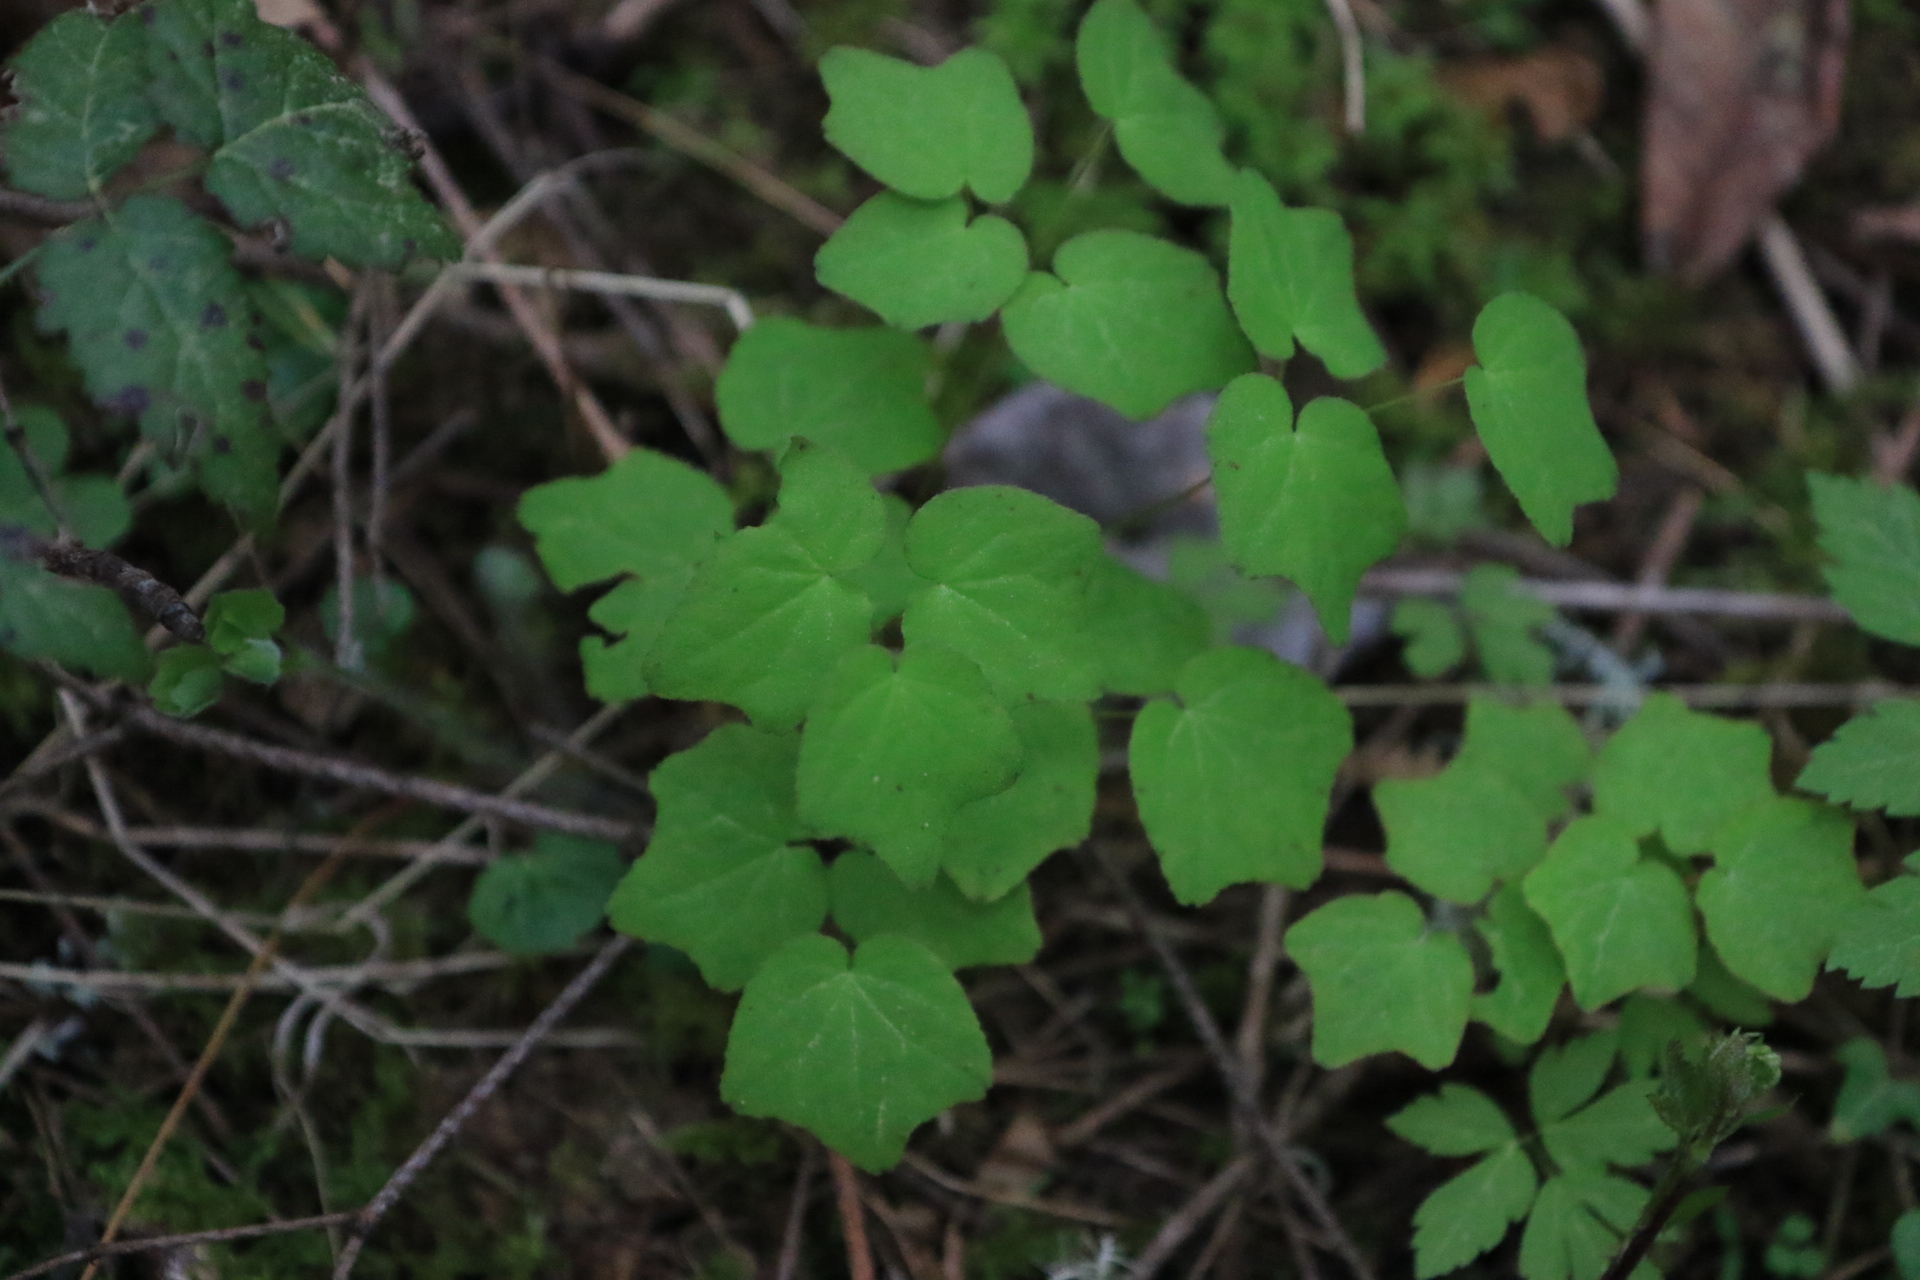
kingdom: Plantae
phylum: Tracheophyta
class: Magnoliopsida
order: Ranunculales
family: Berberidaceae
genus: Vancouveria
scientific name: Vancouveria hexandra
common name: Northern inside-out-flower
